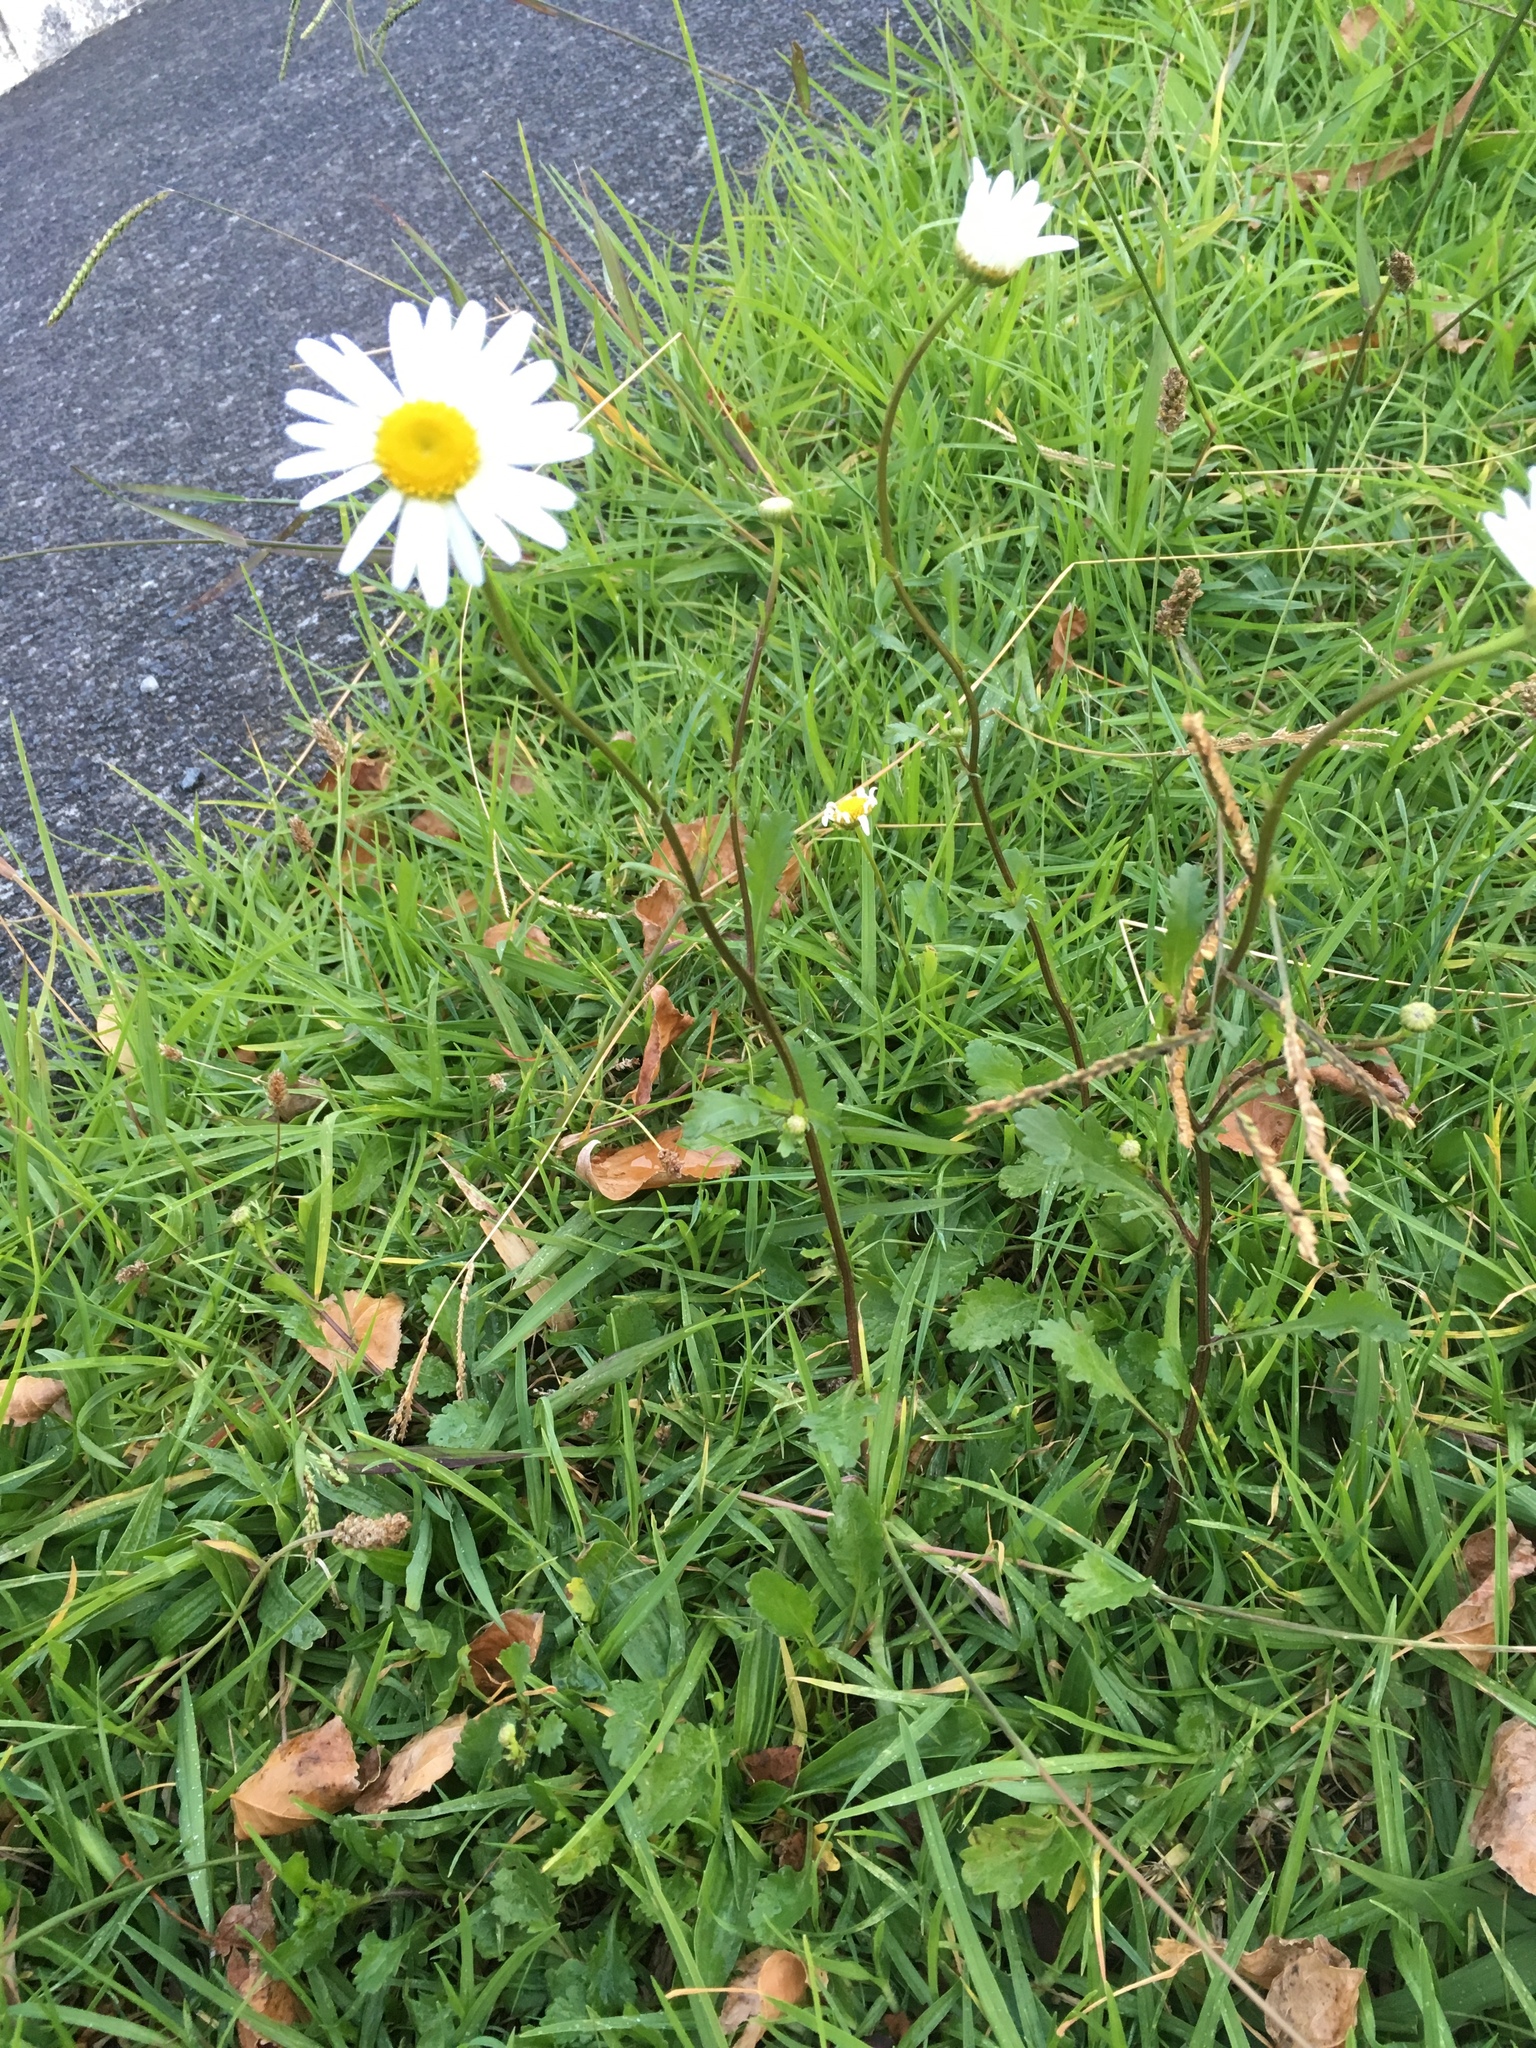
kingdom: Plantae
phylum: Tracheophyta
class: Magnoliopsida
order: Asterales
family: Asteraceae
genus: Leucanthemum
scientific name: Leucanthemum vulgare
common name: Oxeye daisy
